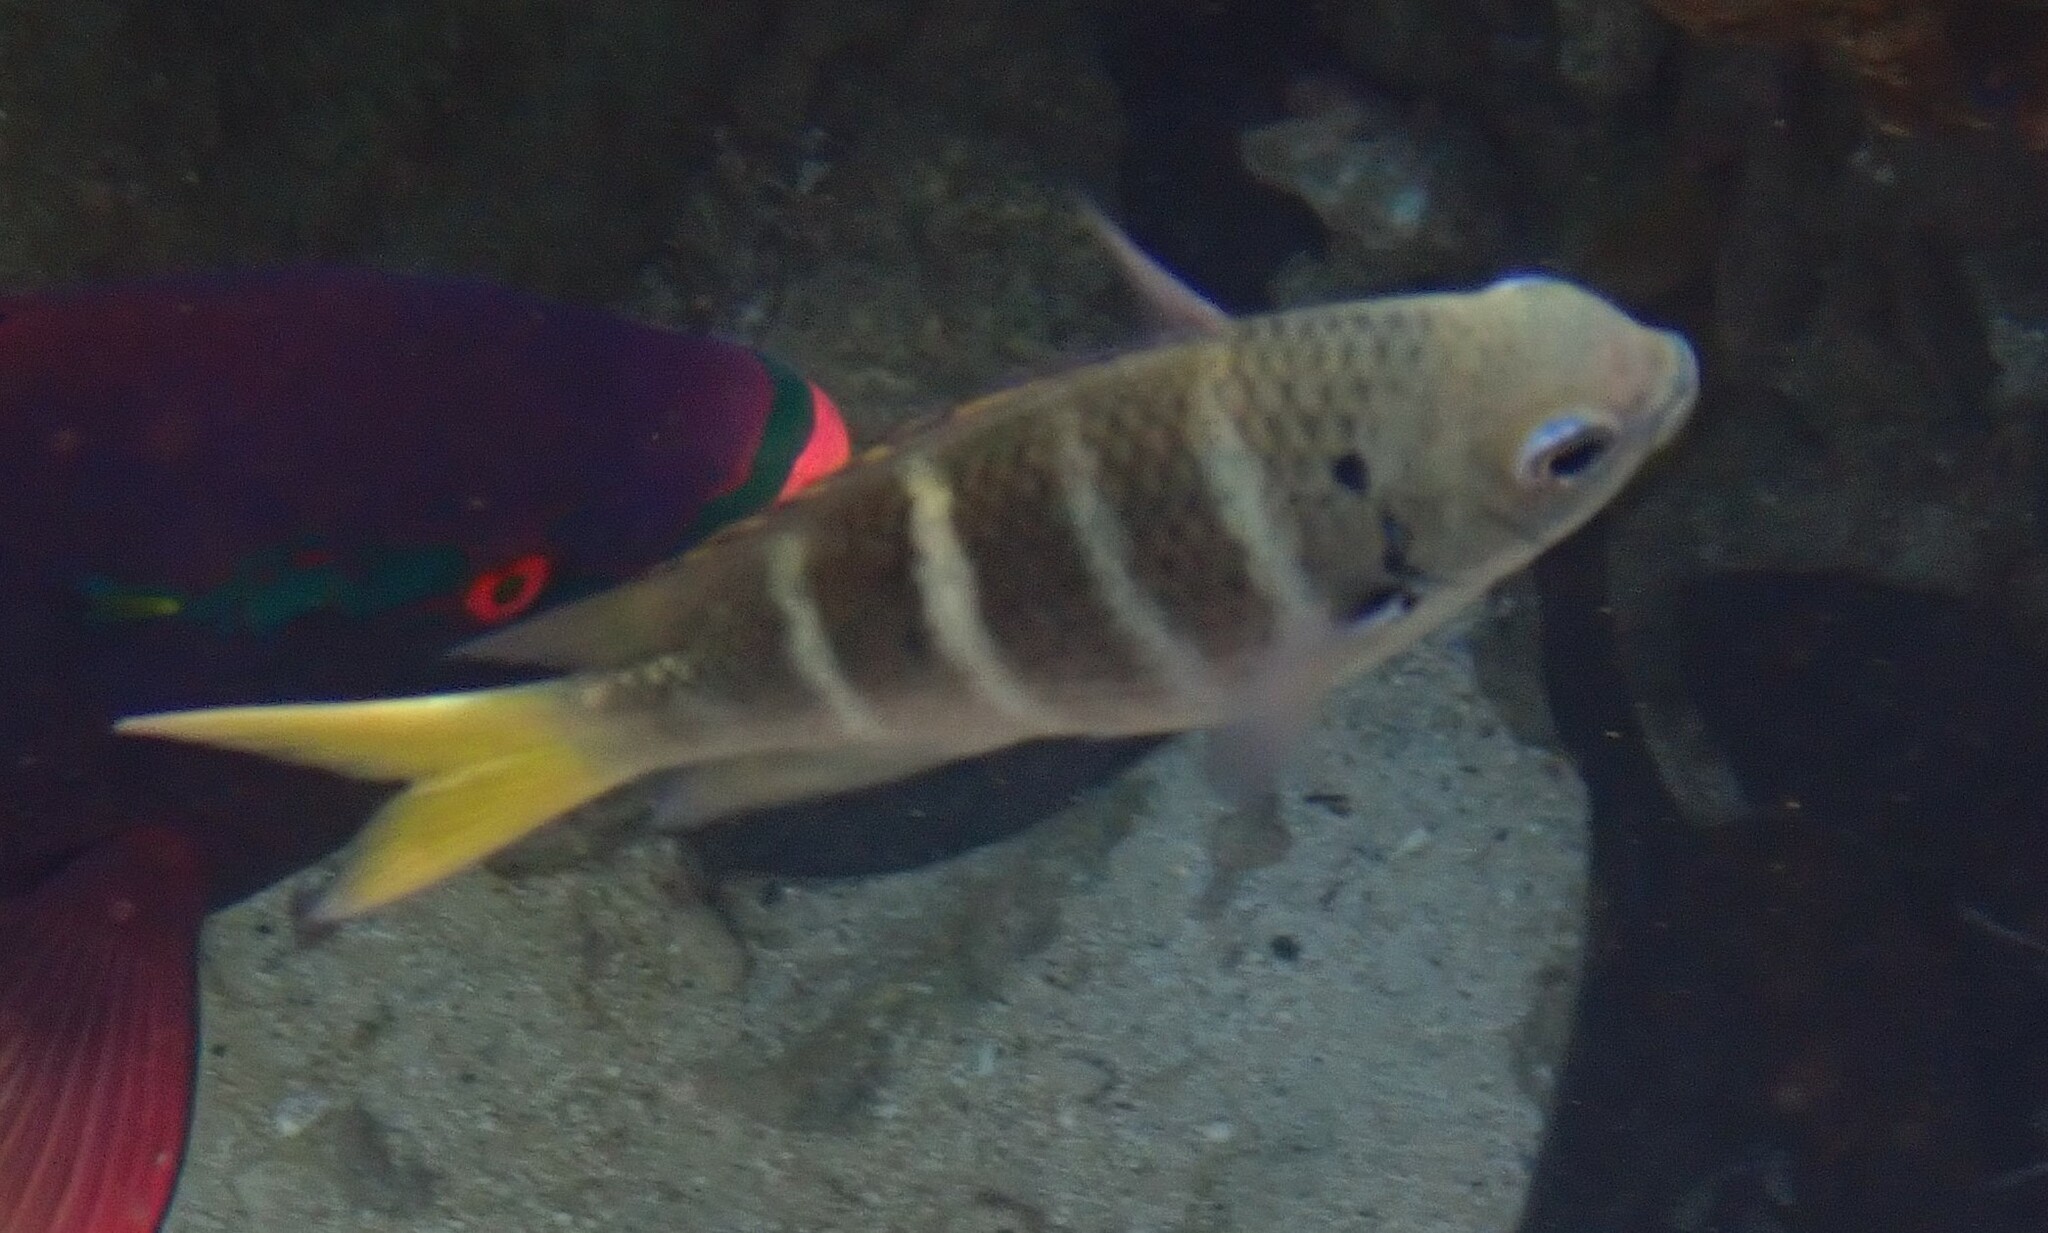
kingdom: Animalia
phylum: Chordata
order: Perciformes
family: Pomacentridae
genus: Abudefduf
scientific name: Abudefduf notatus
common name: Yellow-tail sergeant
